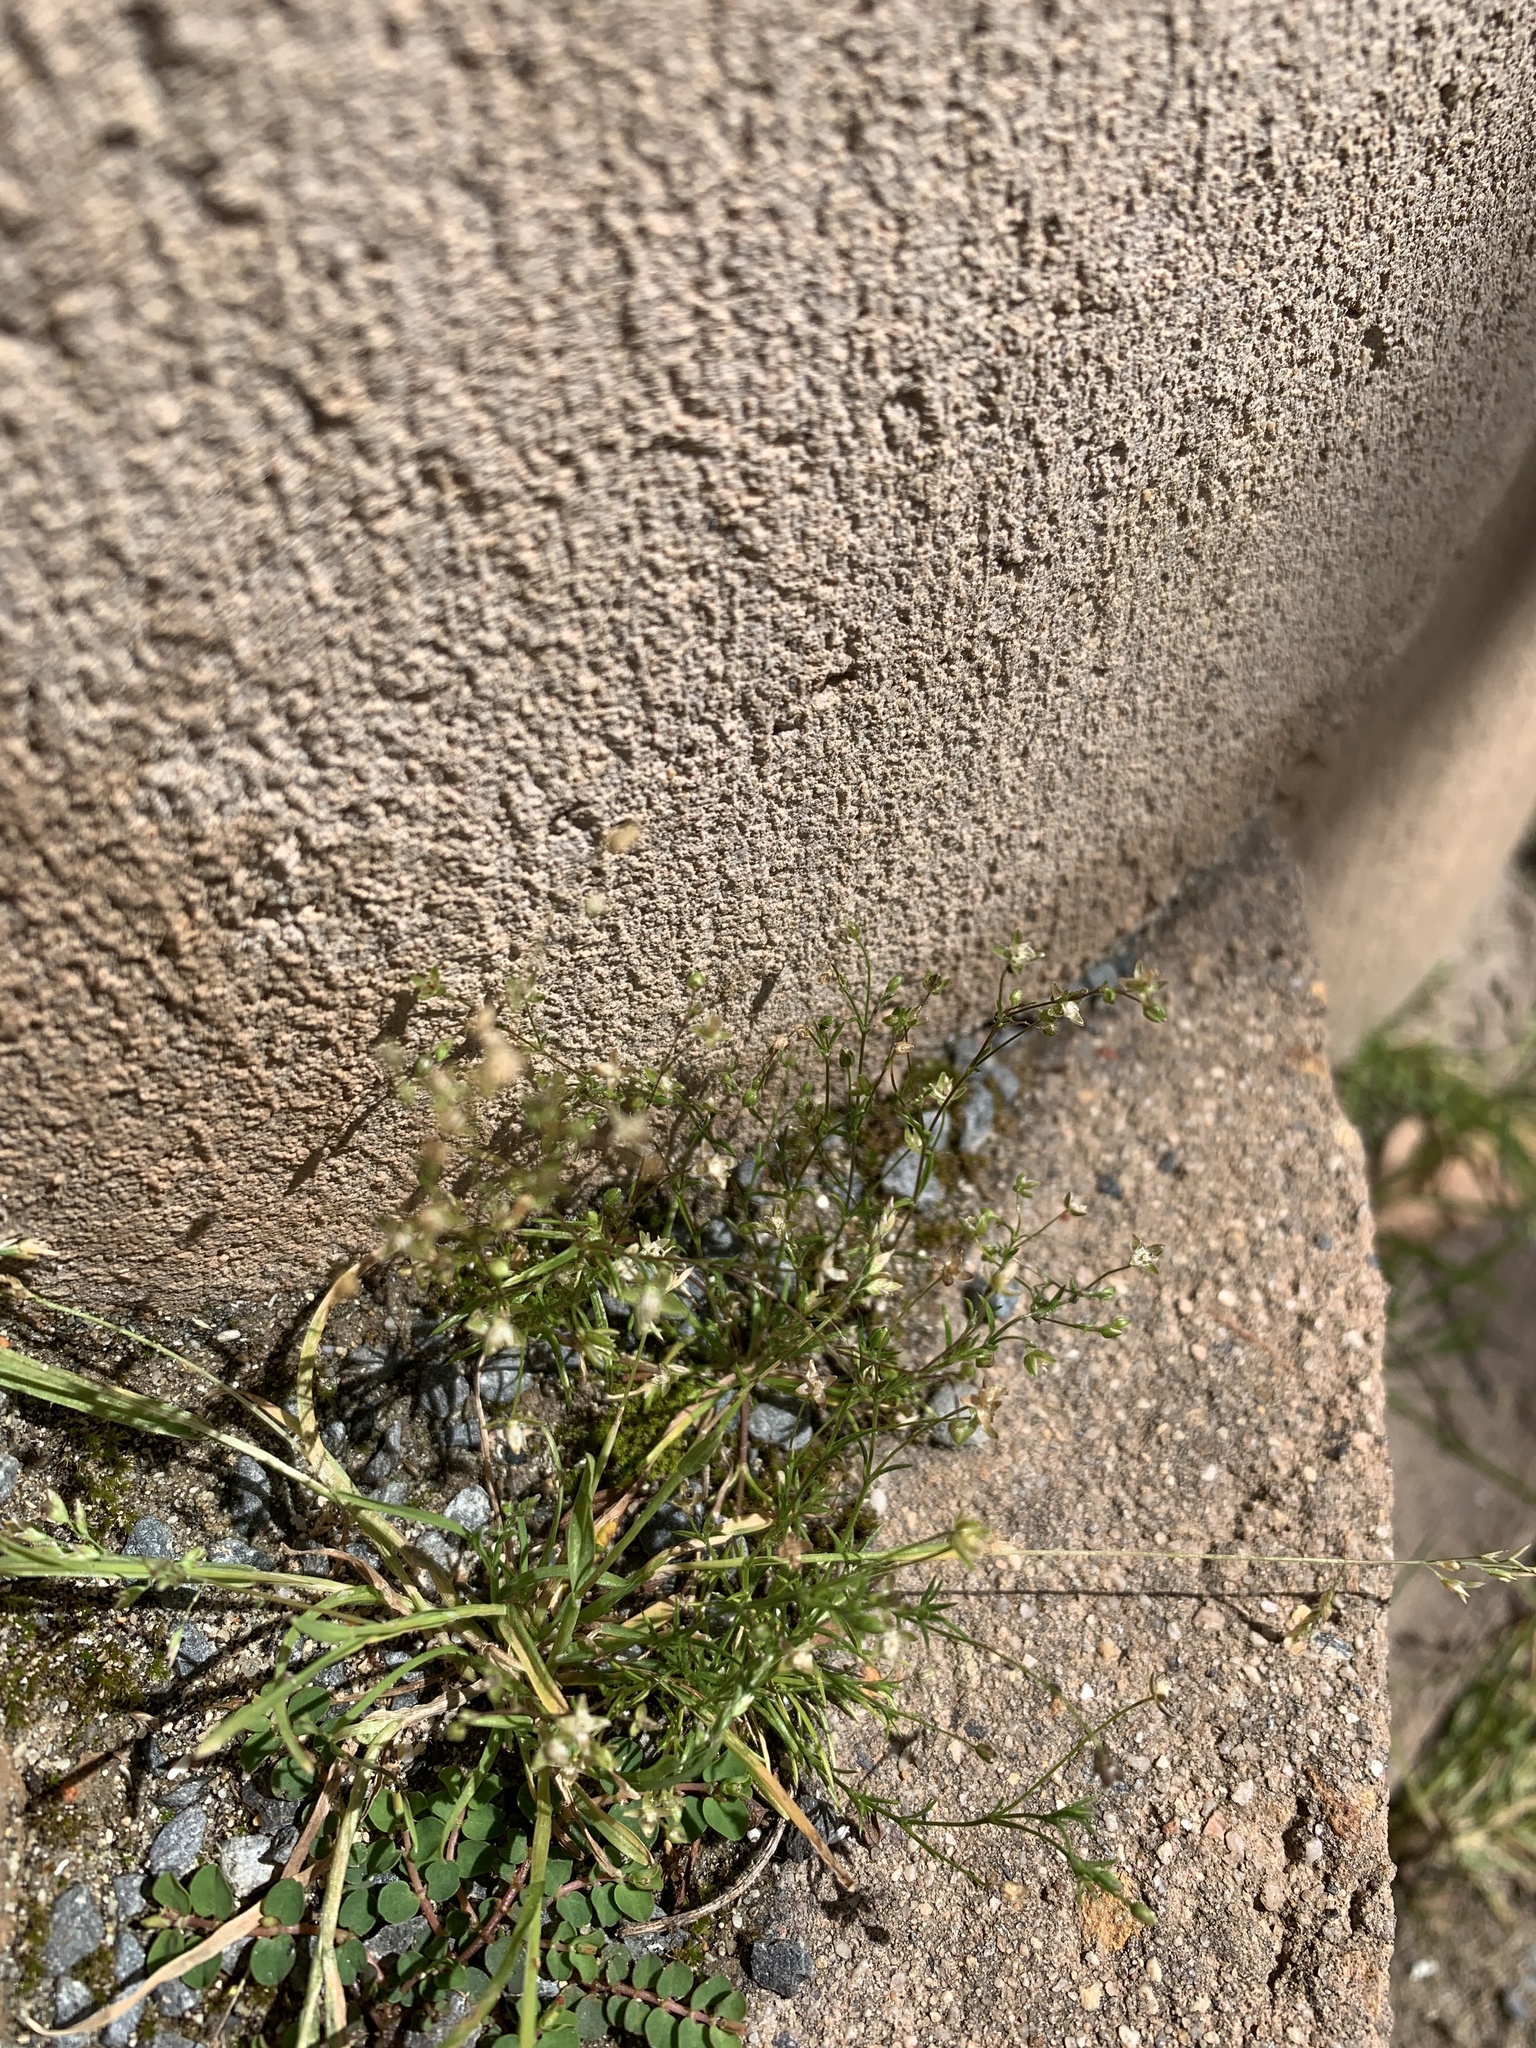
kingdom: Plantae
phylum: Tracheophyta
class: Magnoliopsida
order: Caryophyllales
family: Caryophyllaceae
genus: Sagina
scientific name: Sagina micropetala
